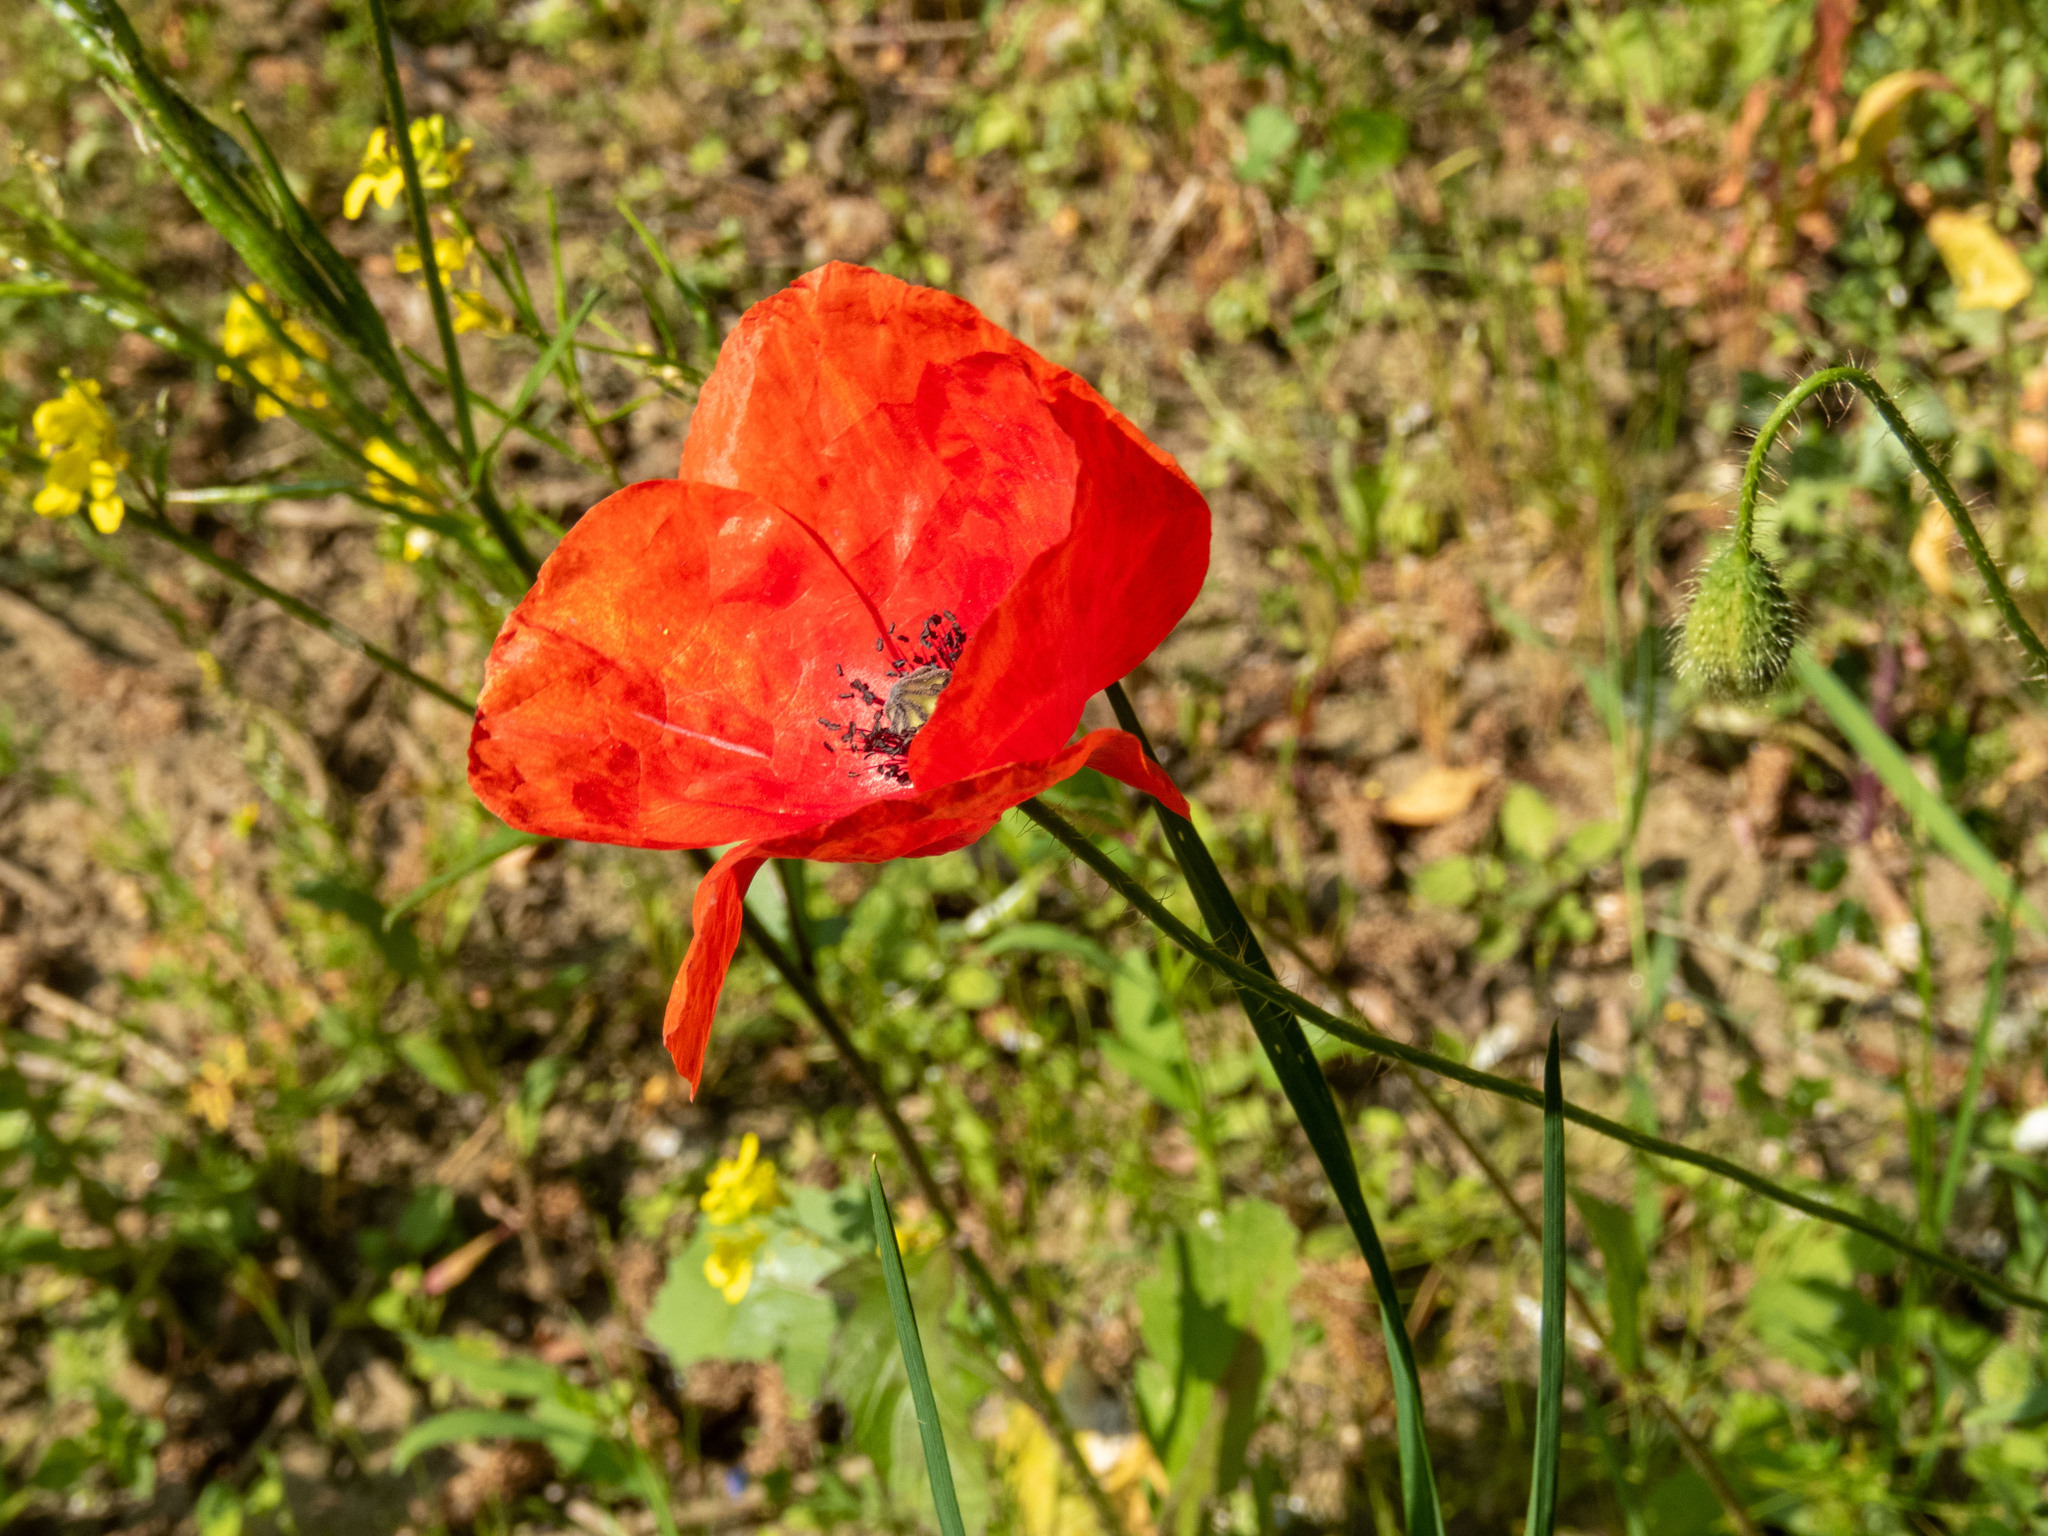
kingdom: Plantae
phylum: Tracheophyta
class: Magnoliopsida
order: Ranunculales
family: Papaveraceae
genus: Papaver
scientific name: Papaver rhoeas
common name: Corn poppy
